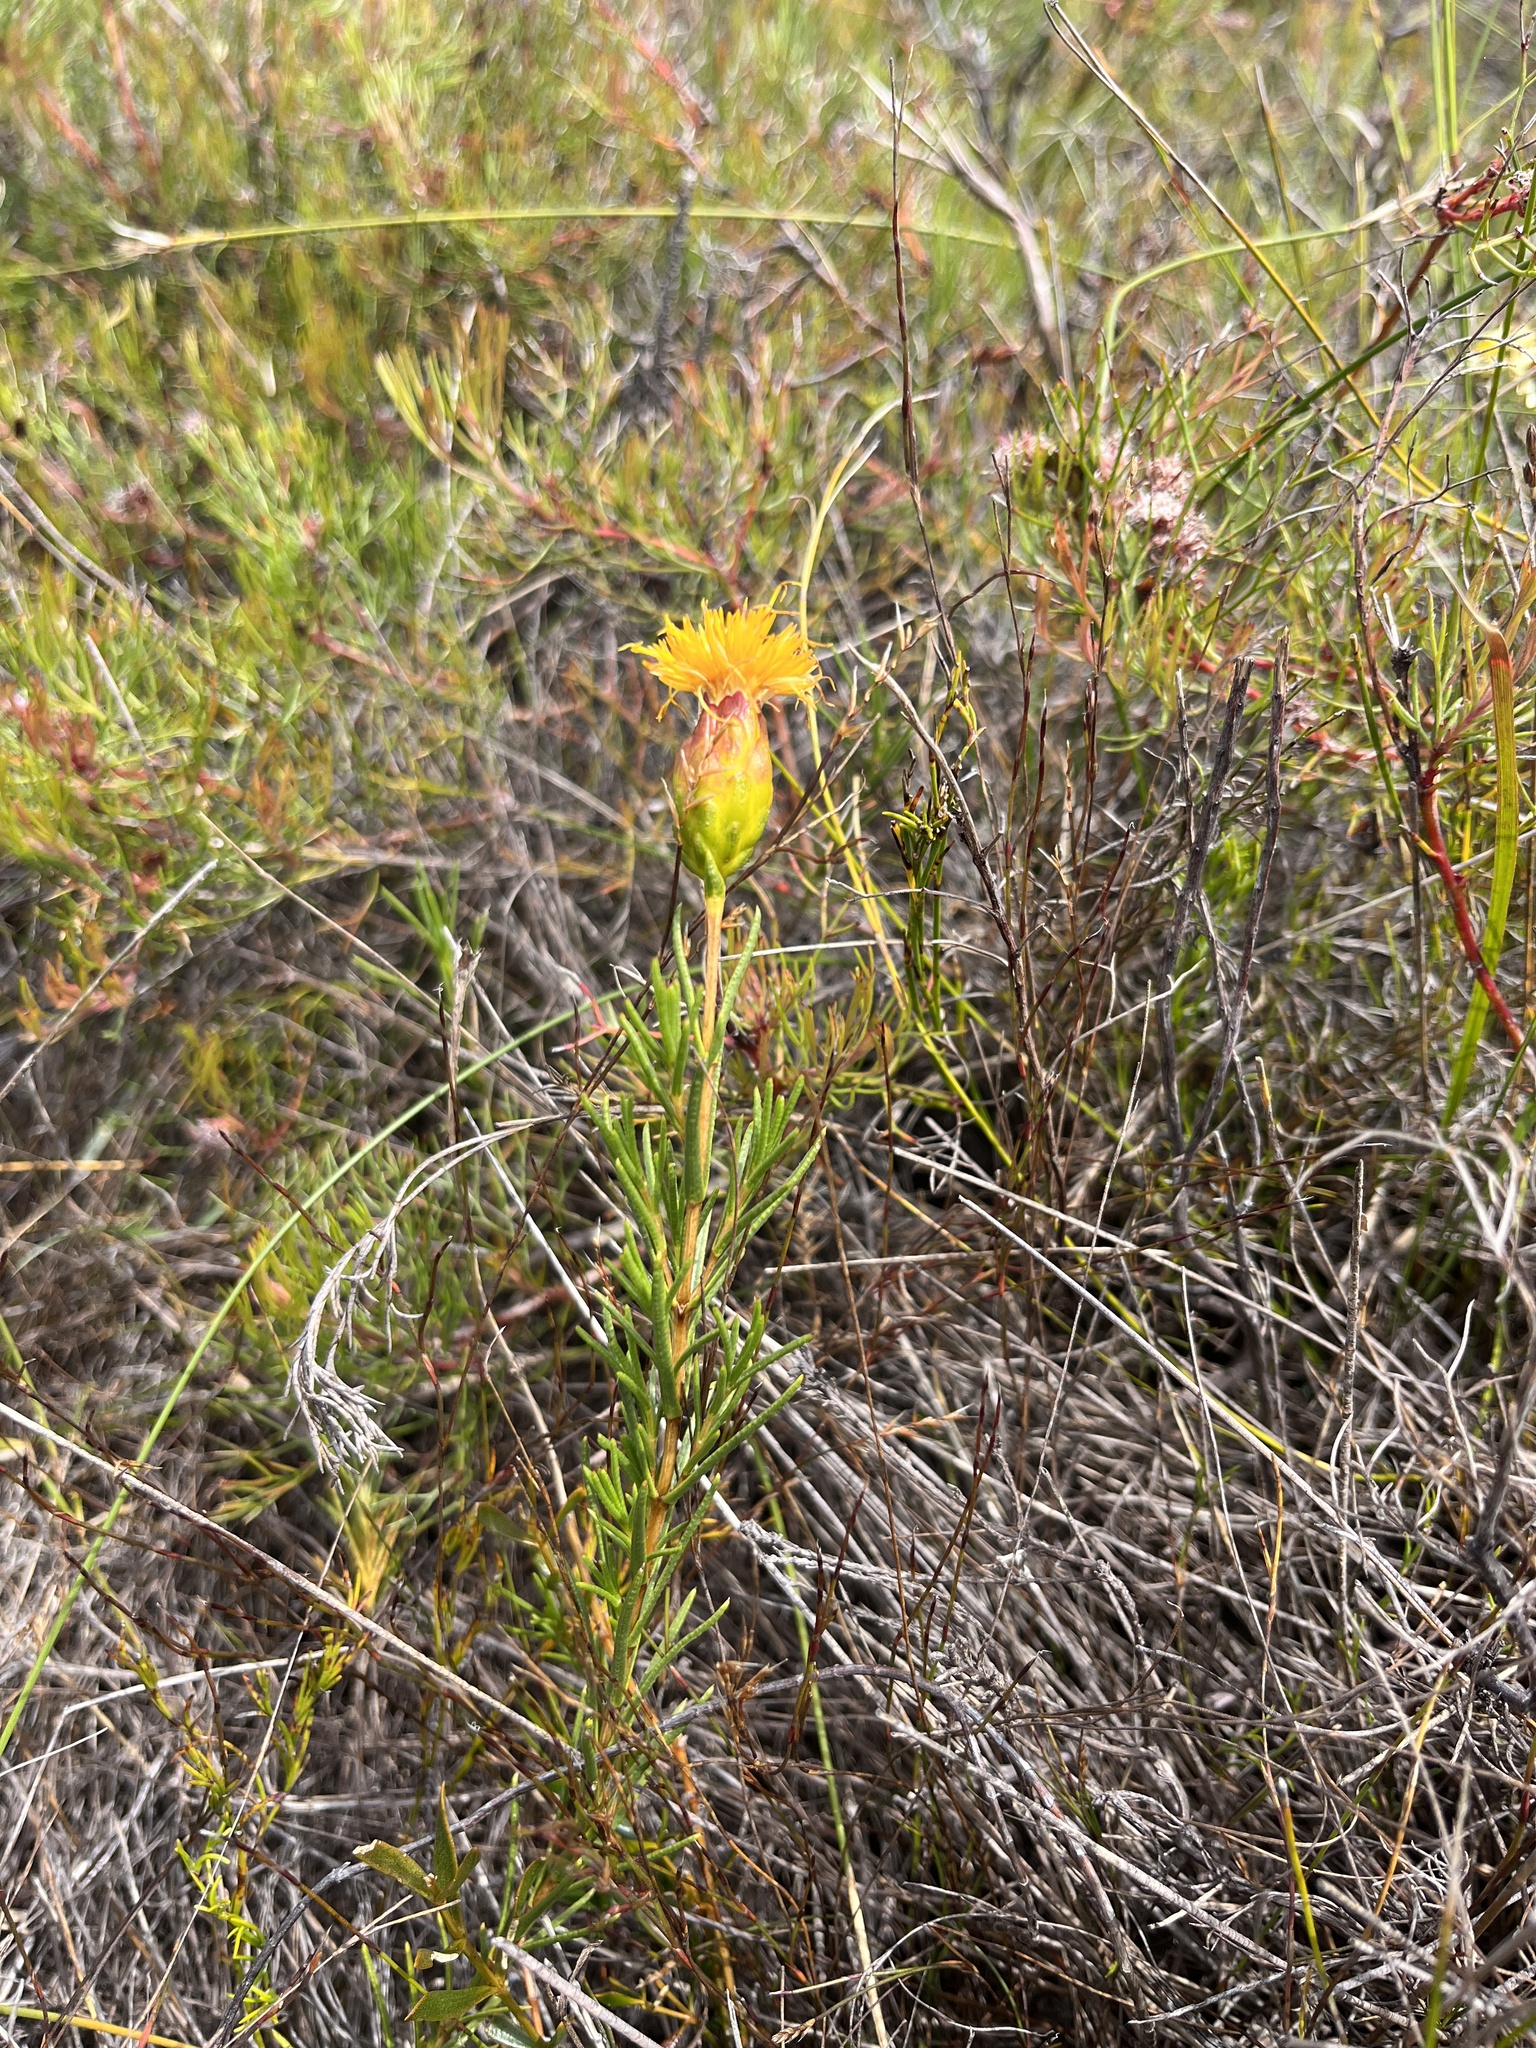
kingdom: Plantae
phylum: Tracheophyta
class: Magnoliopsida
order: Asterales
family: Asteraceae
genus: Pteronia
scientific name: Pteronia tenuifolia
